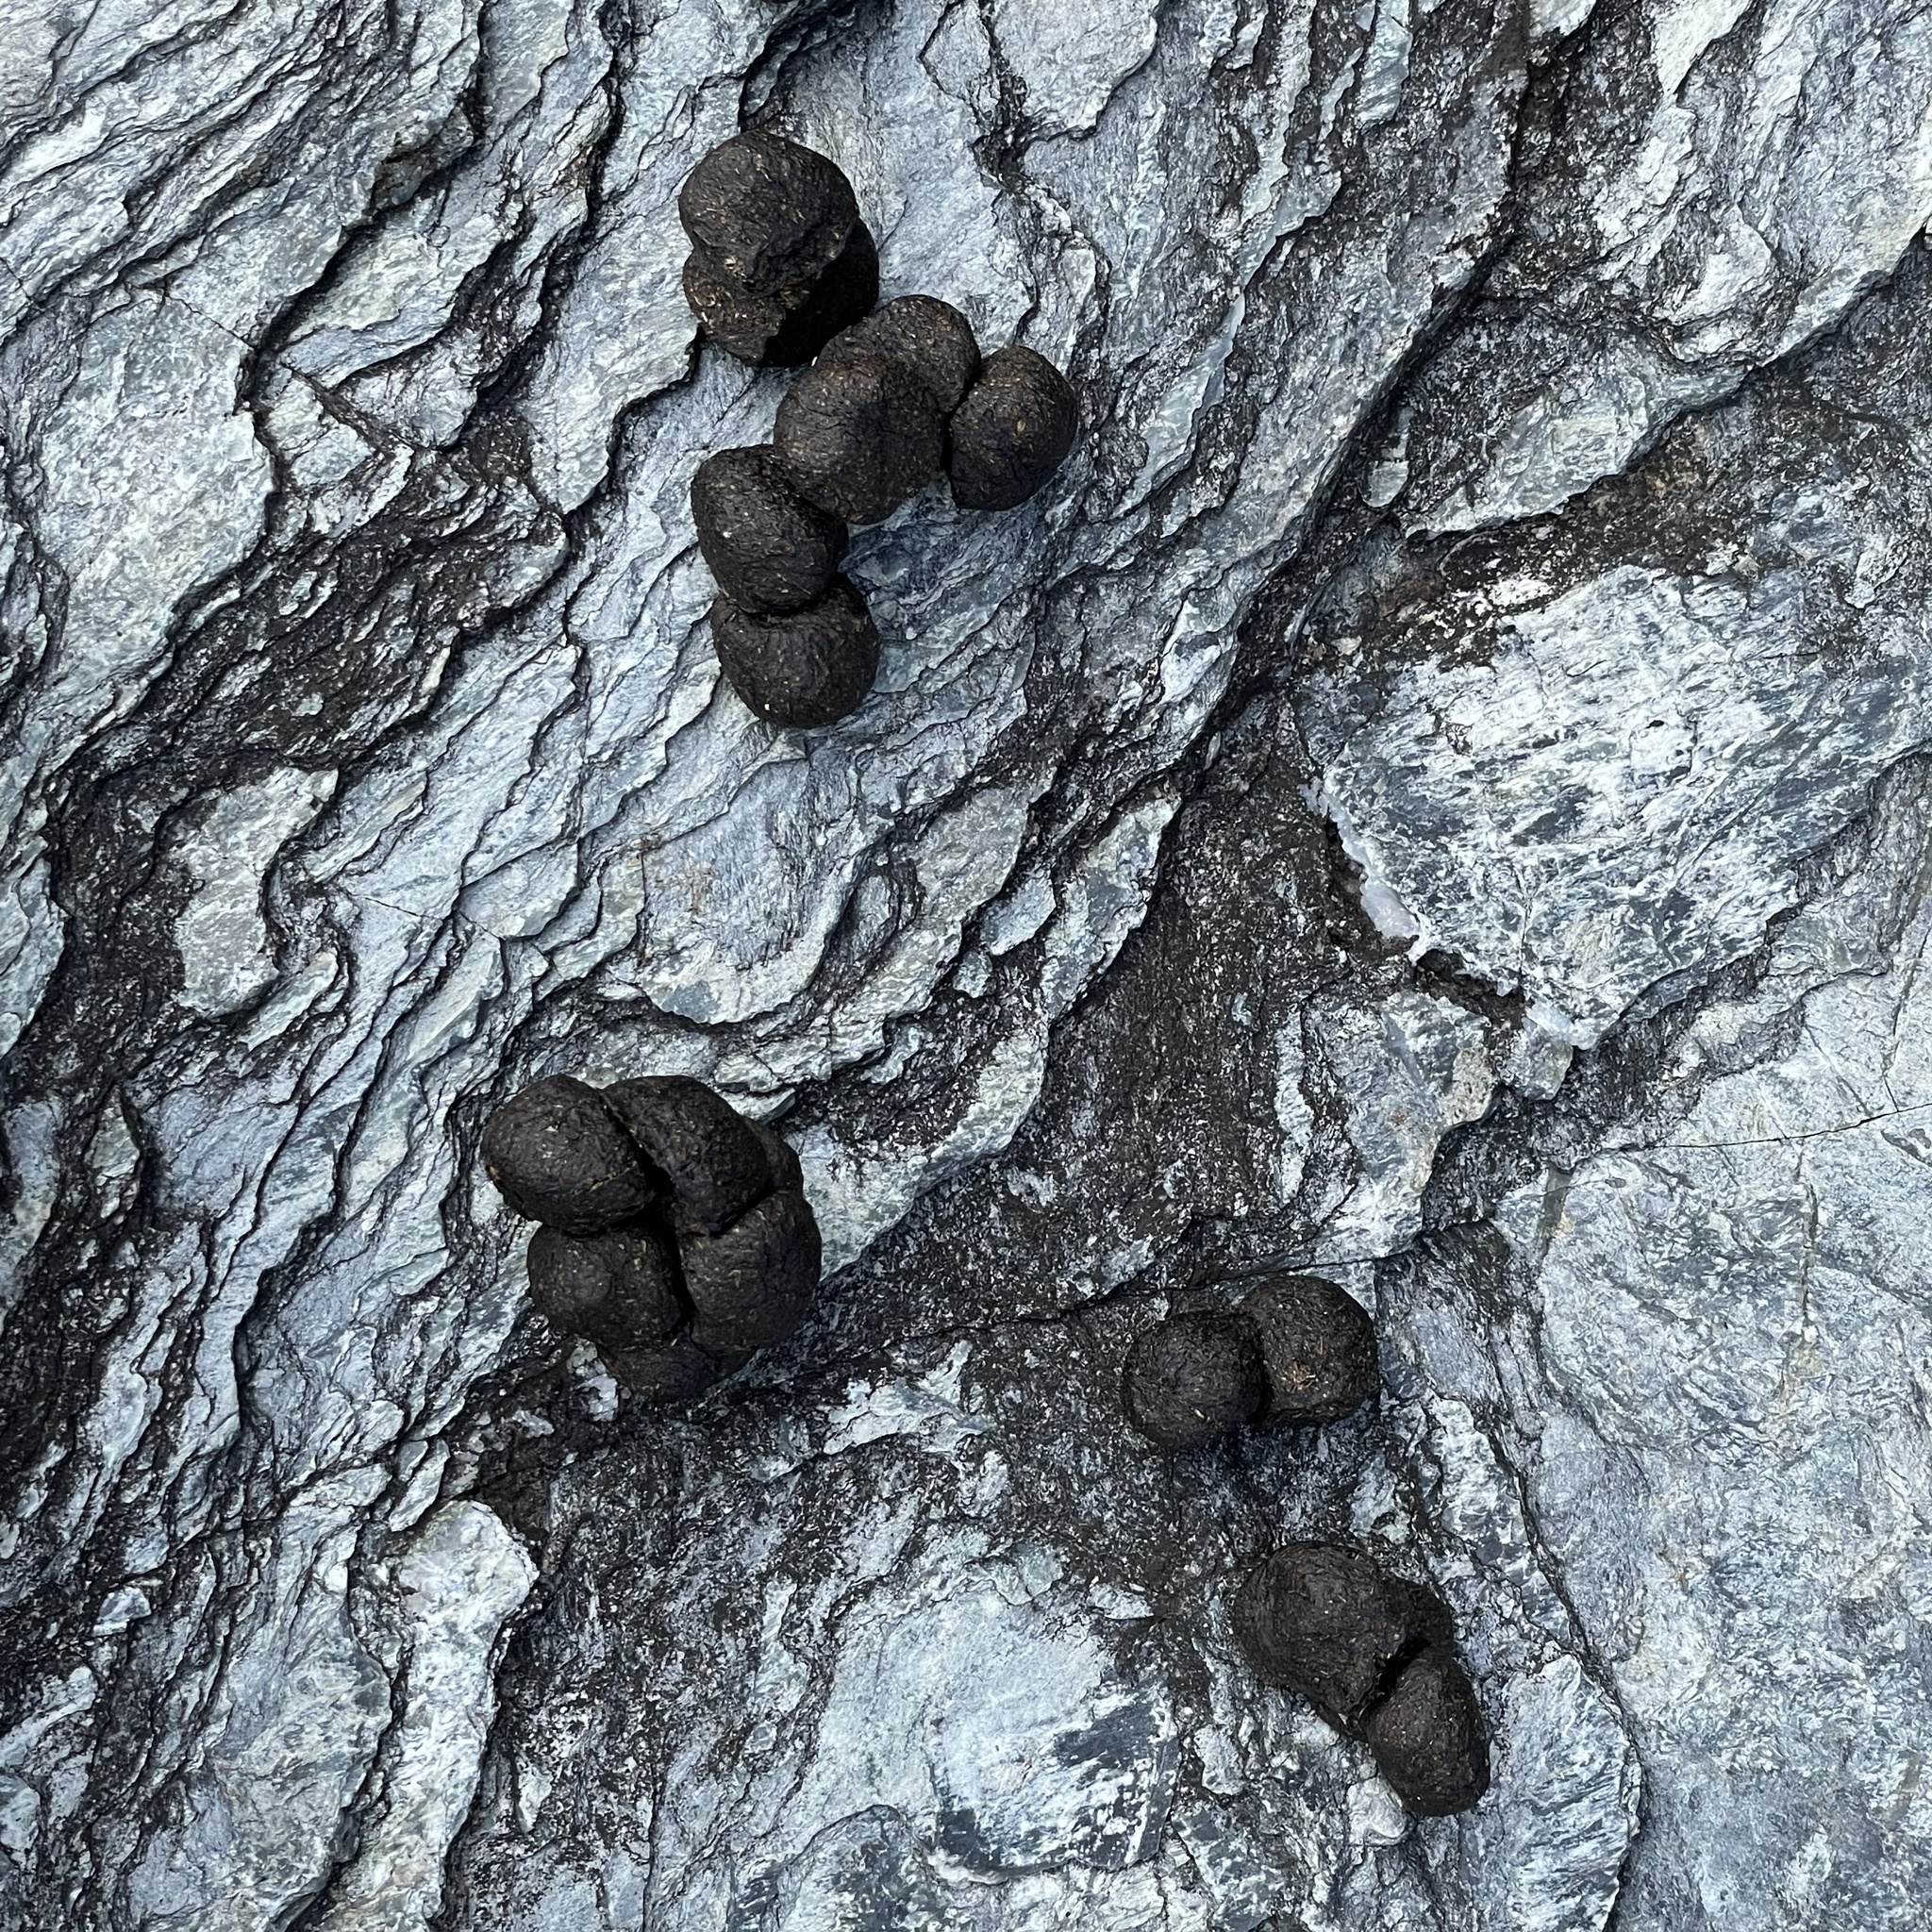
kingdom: Animalia
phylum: Chordata
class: Mammalia
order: Artiodactyla
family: Bovidae
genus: Capra
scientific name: Capra hircus
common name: Domestic goat
